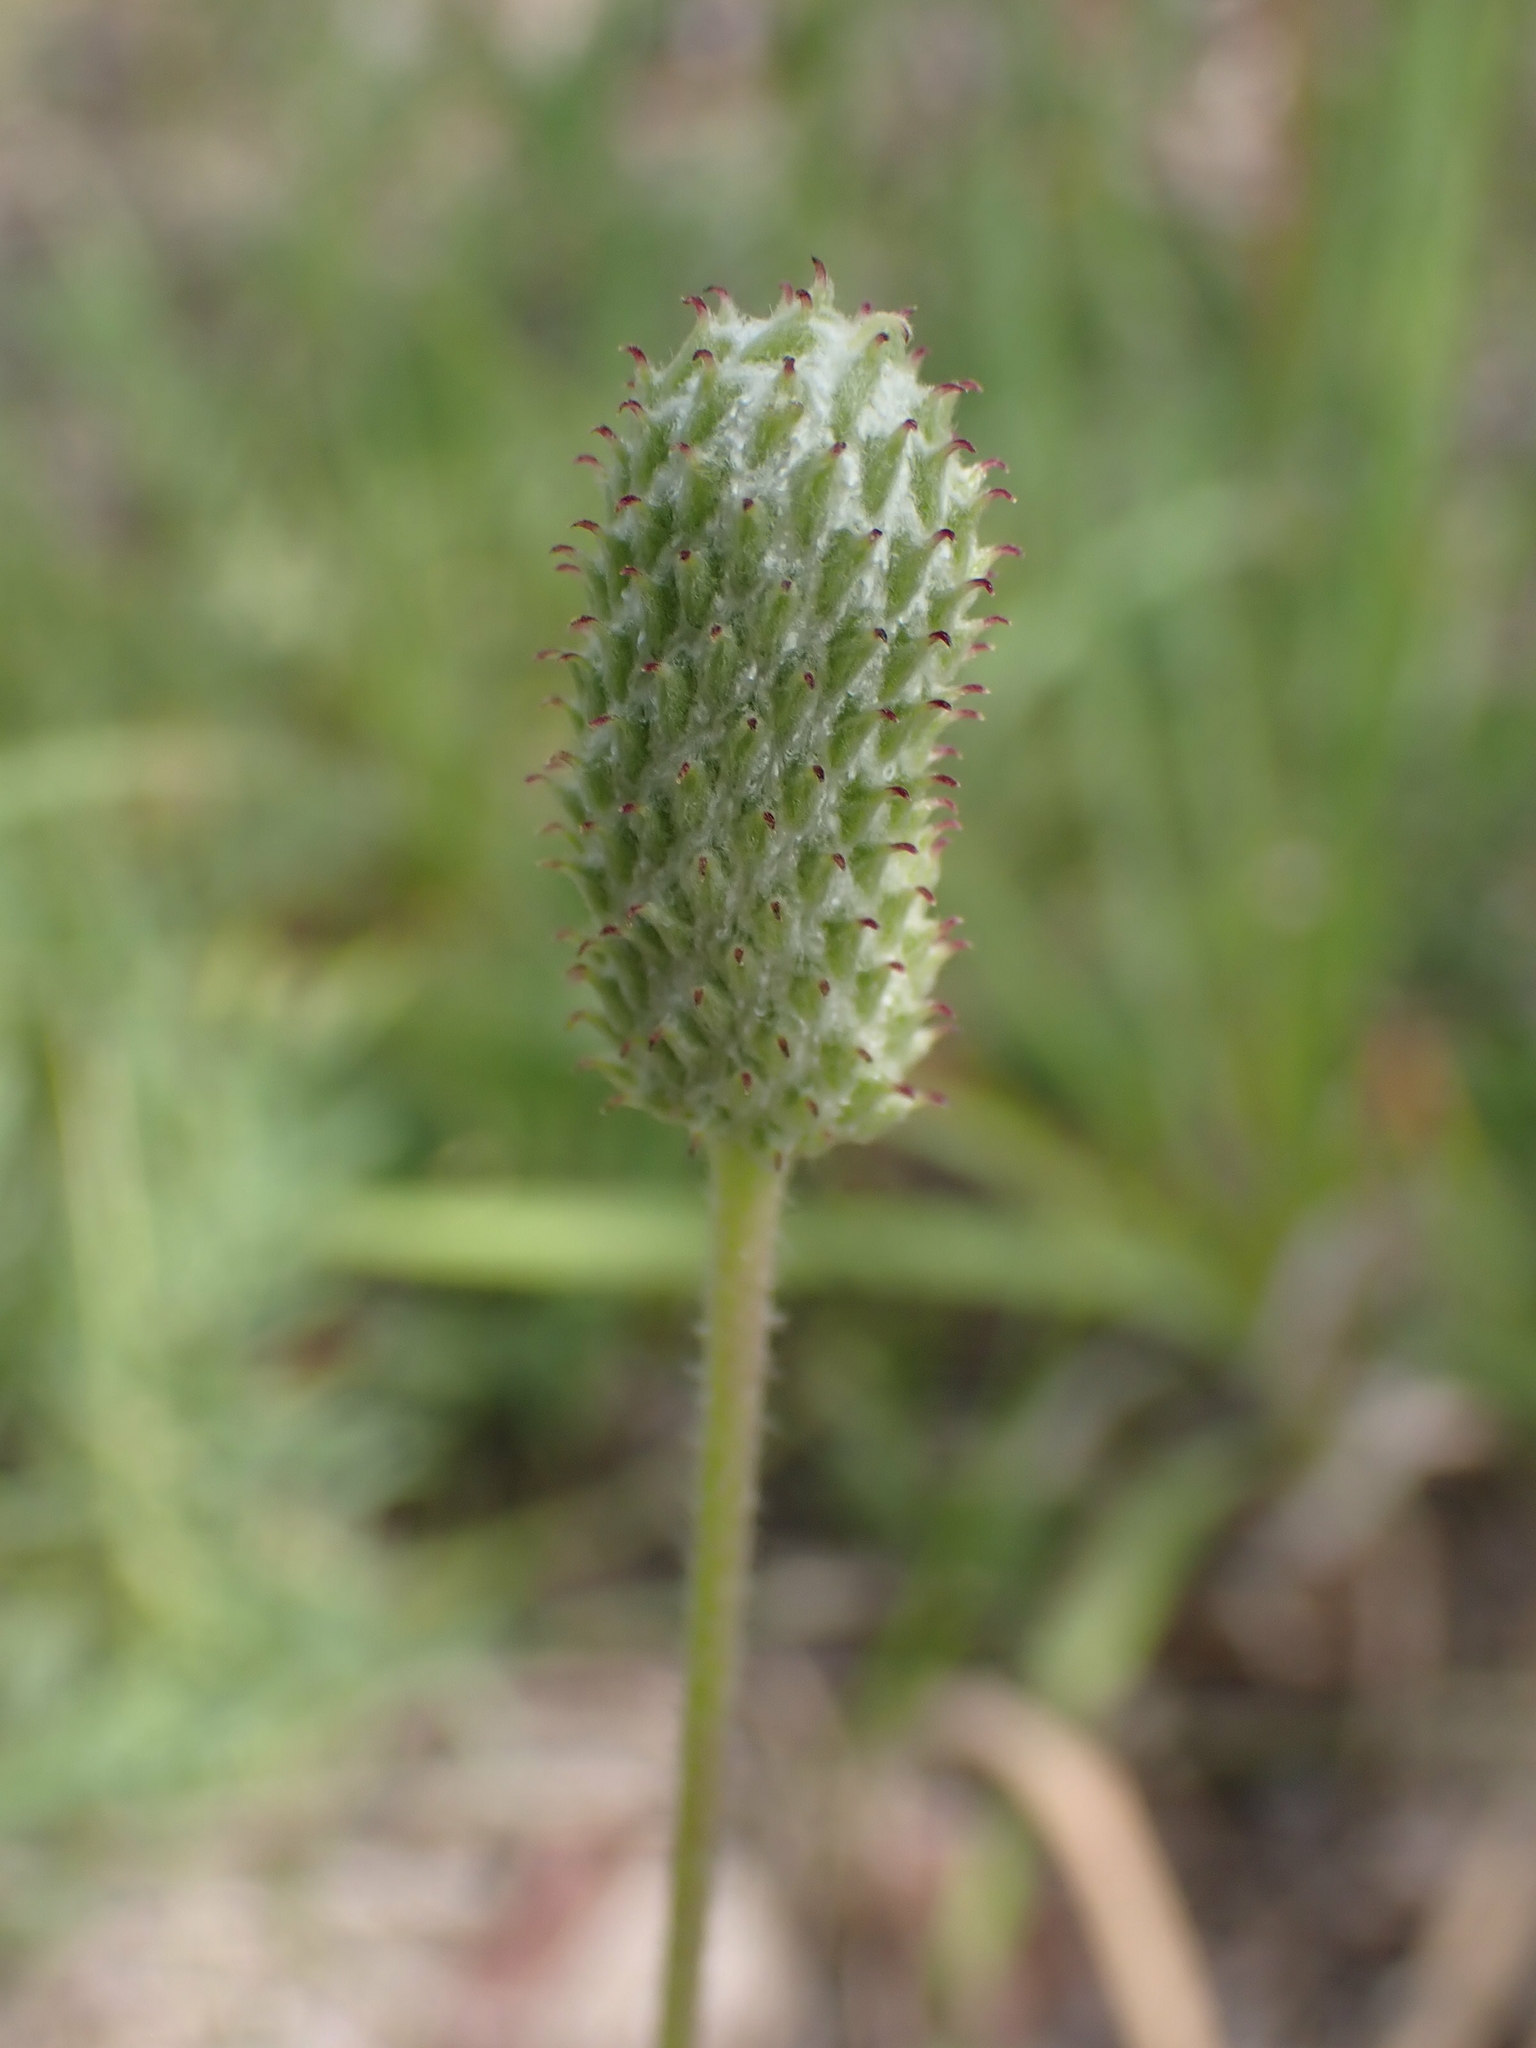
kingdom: Plantae
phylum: Tracheophyta
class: Magnoliopsida
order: Ranunculales
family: Ranunculaceae
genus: Anemone
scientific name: Anemone cylindrica
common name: Candle anemone
